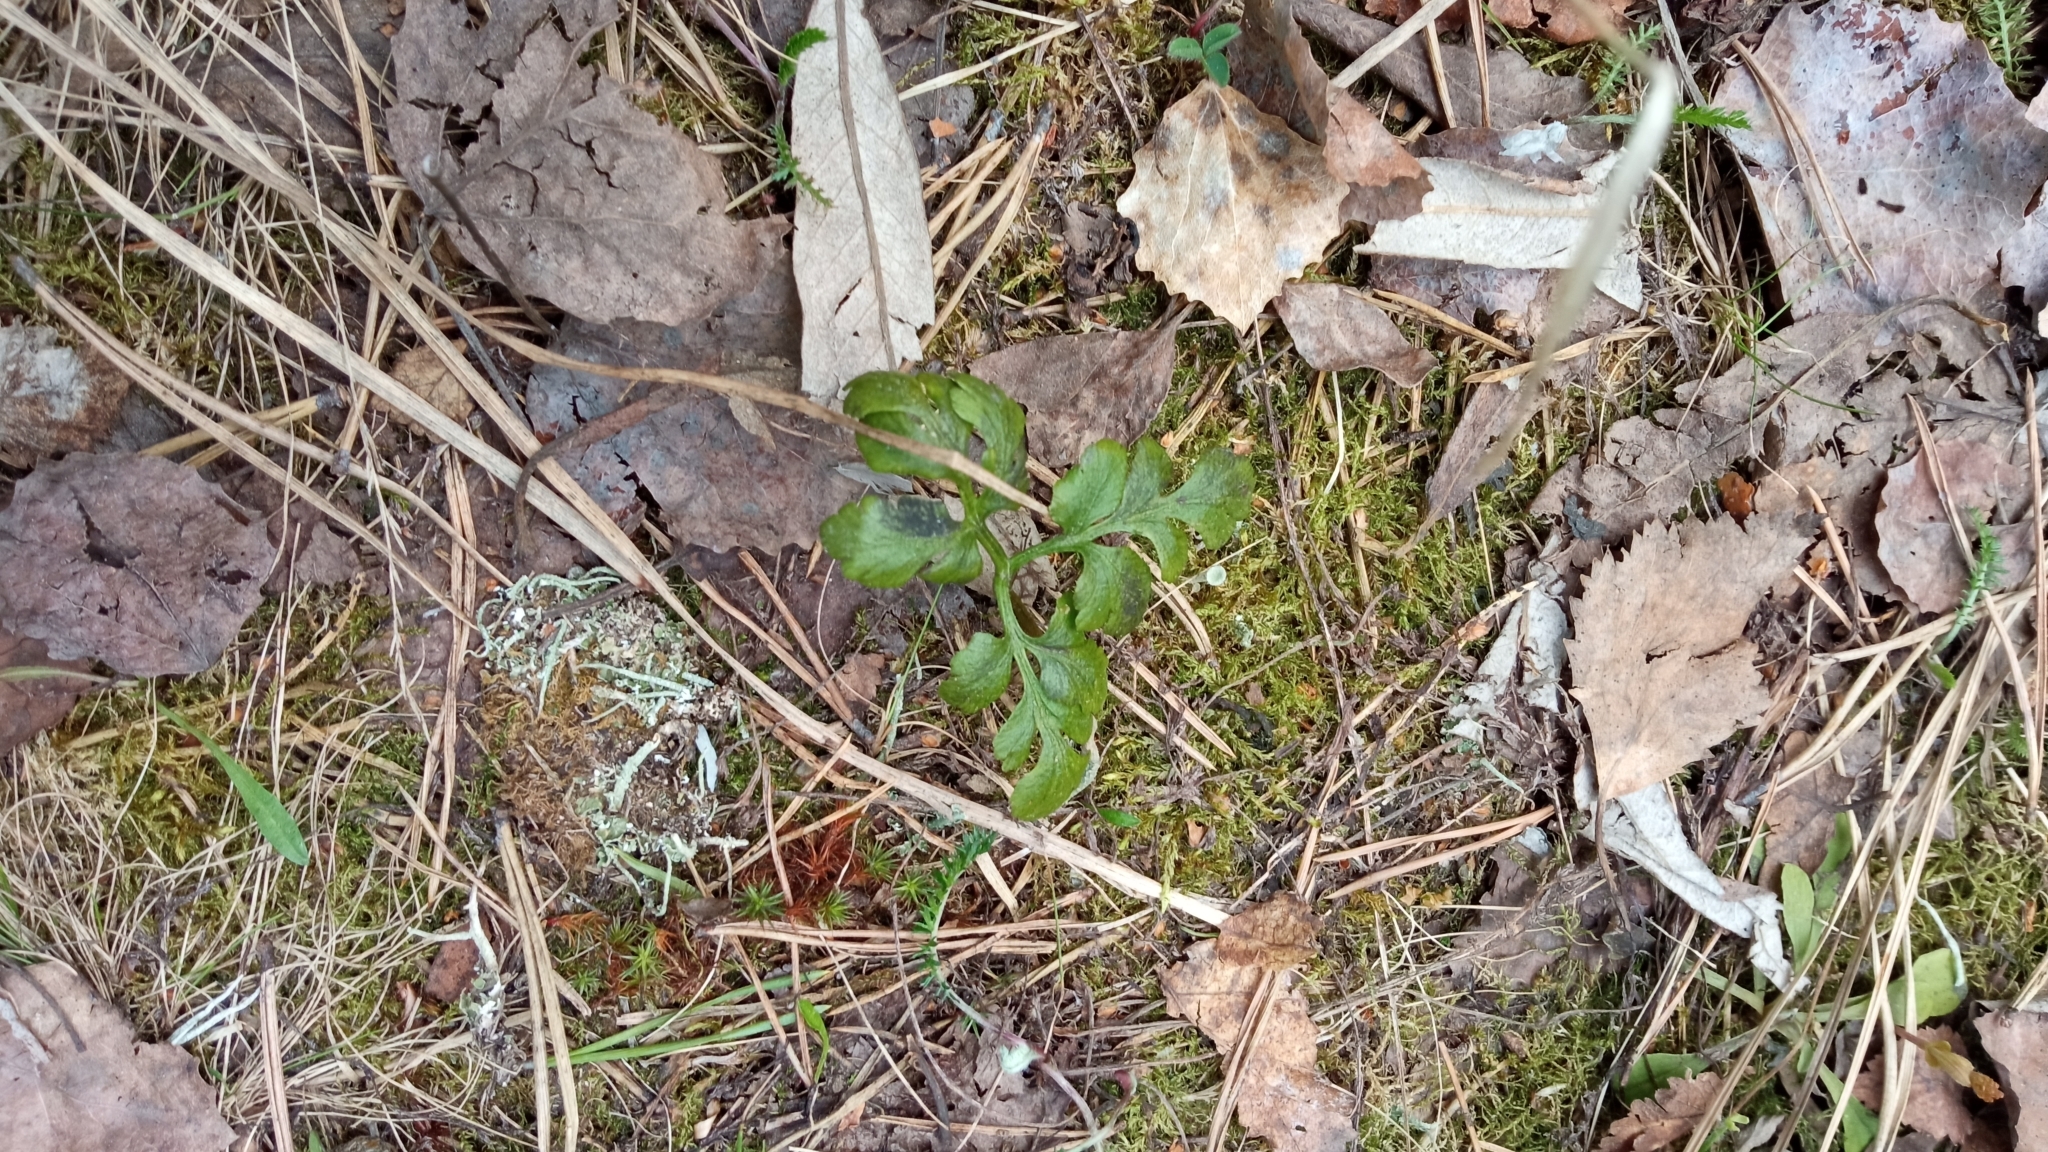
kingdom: Plantae
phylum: Tracheophyta
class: Polypodiopsida
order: Ophioglossales
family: Ophioglossaceae
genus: Sceptridium
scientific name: Sceptridium multifidum
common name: Leathery grape fern
